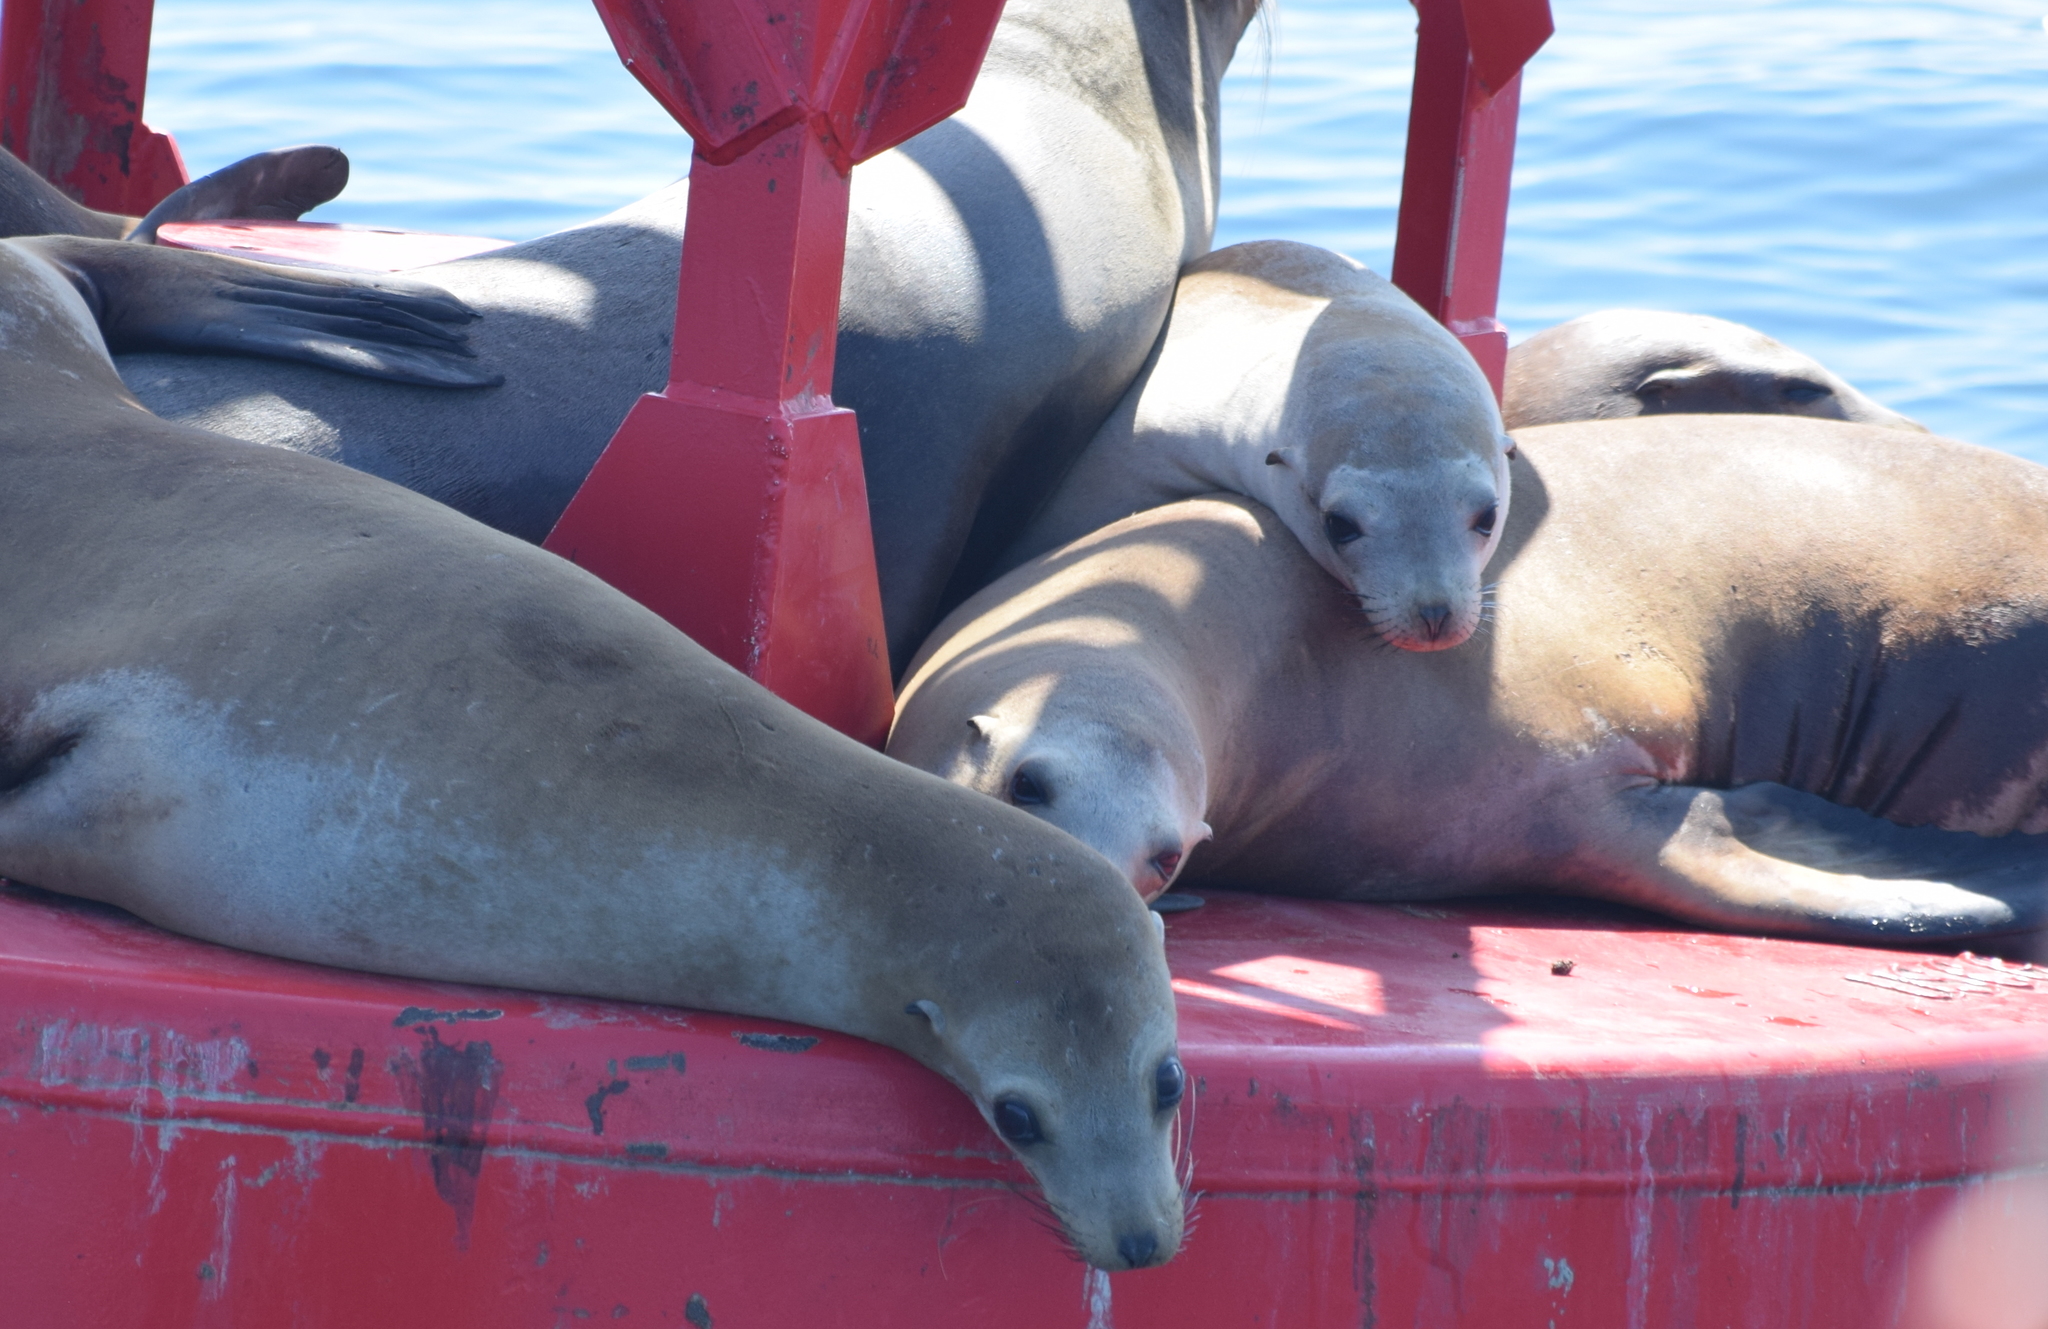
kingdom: Animalia
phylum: Chordata
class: Mammalia
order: Carnivora
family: Otariidae
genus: Zalophus
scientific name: Zalophus californianus
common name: California sea lion
